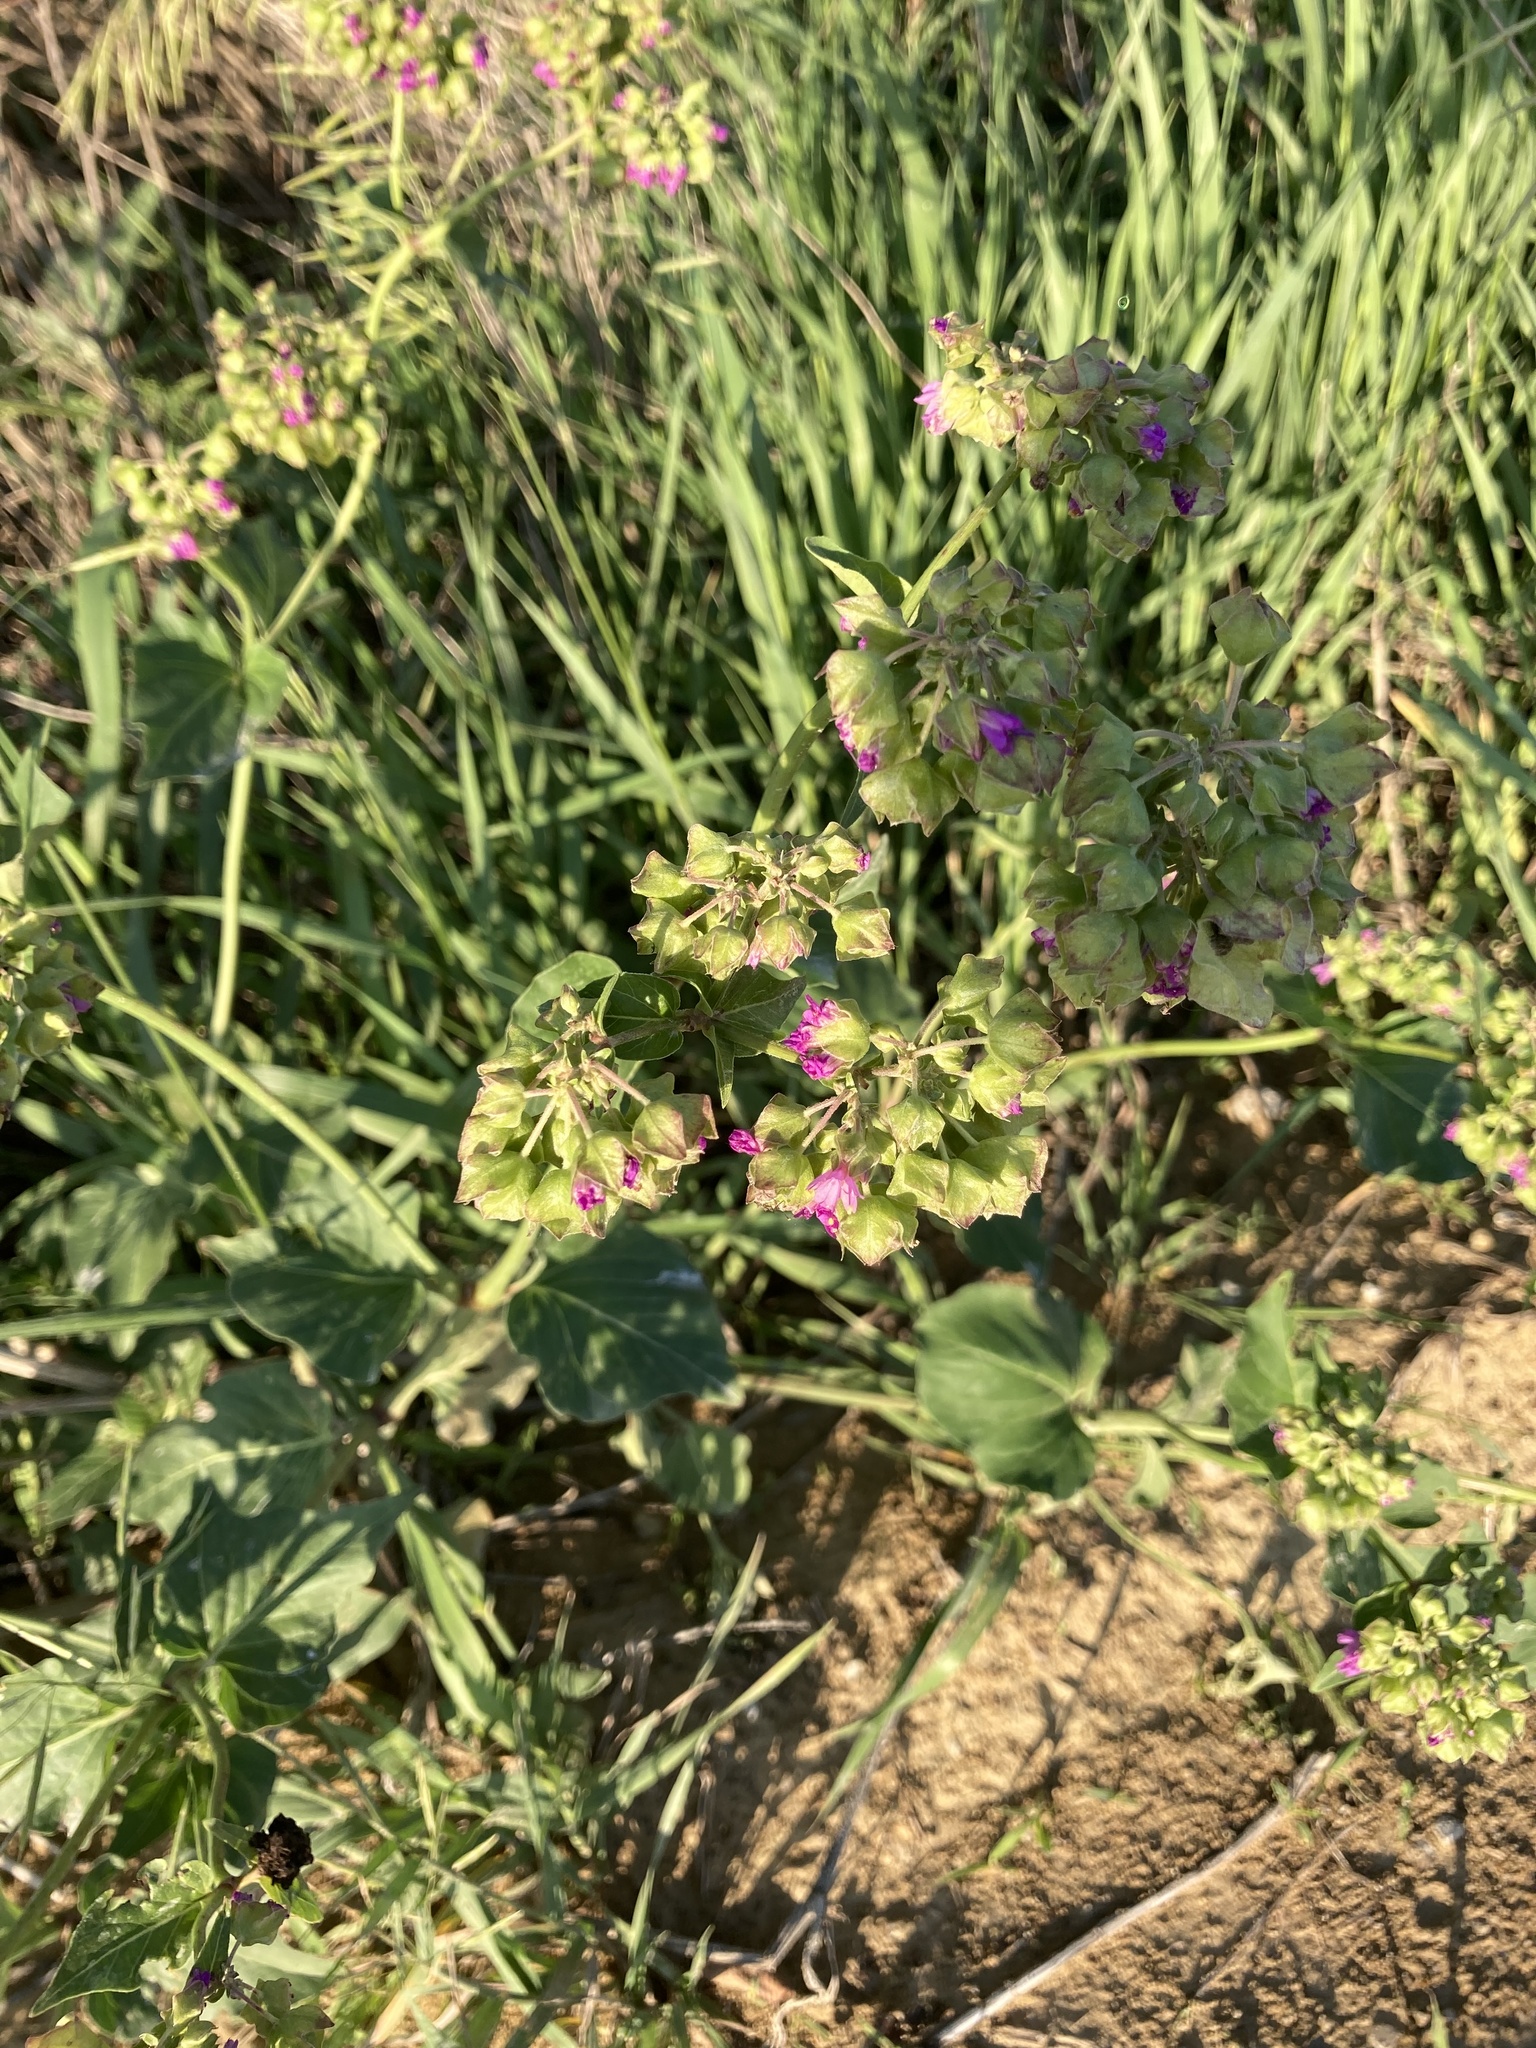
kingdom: Plantae
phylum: Tracheophyta
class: Magnoliopsida
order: Caryophyllales
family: Nyctaginaceae
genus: Mirabilis
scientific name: Mirabilis nyctaginea
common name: Umbrella wort
